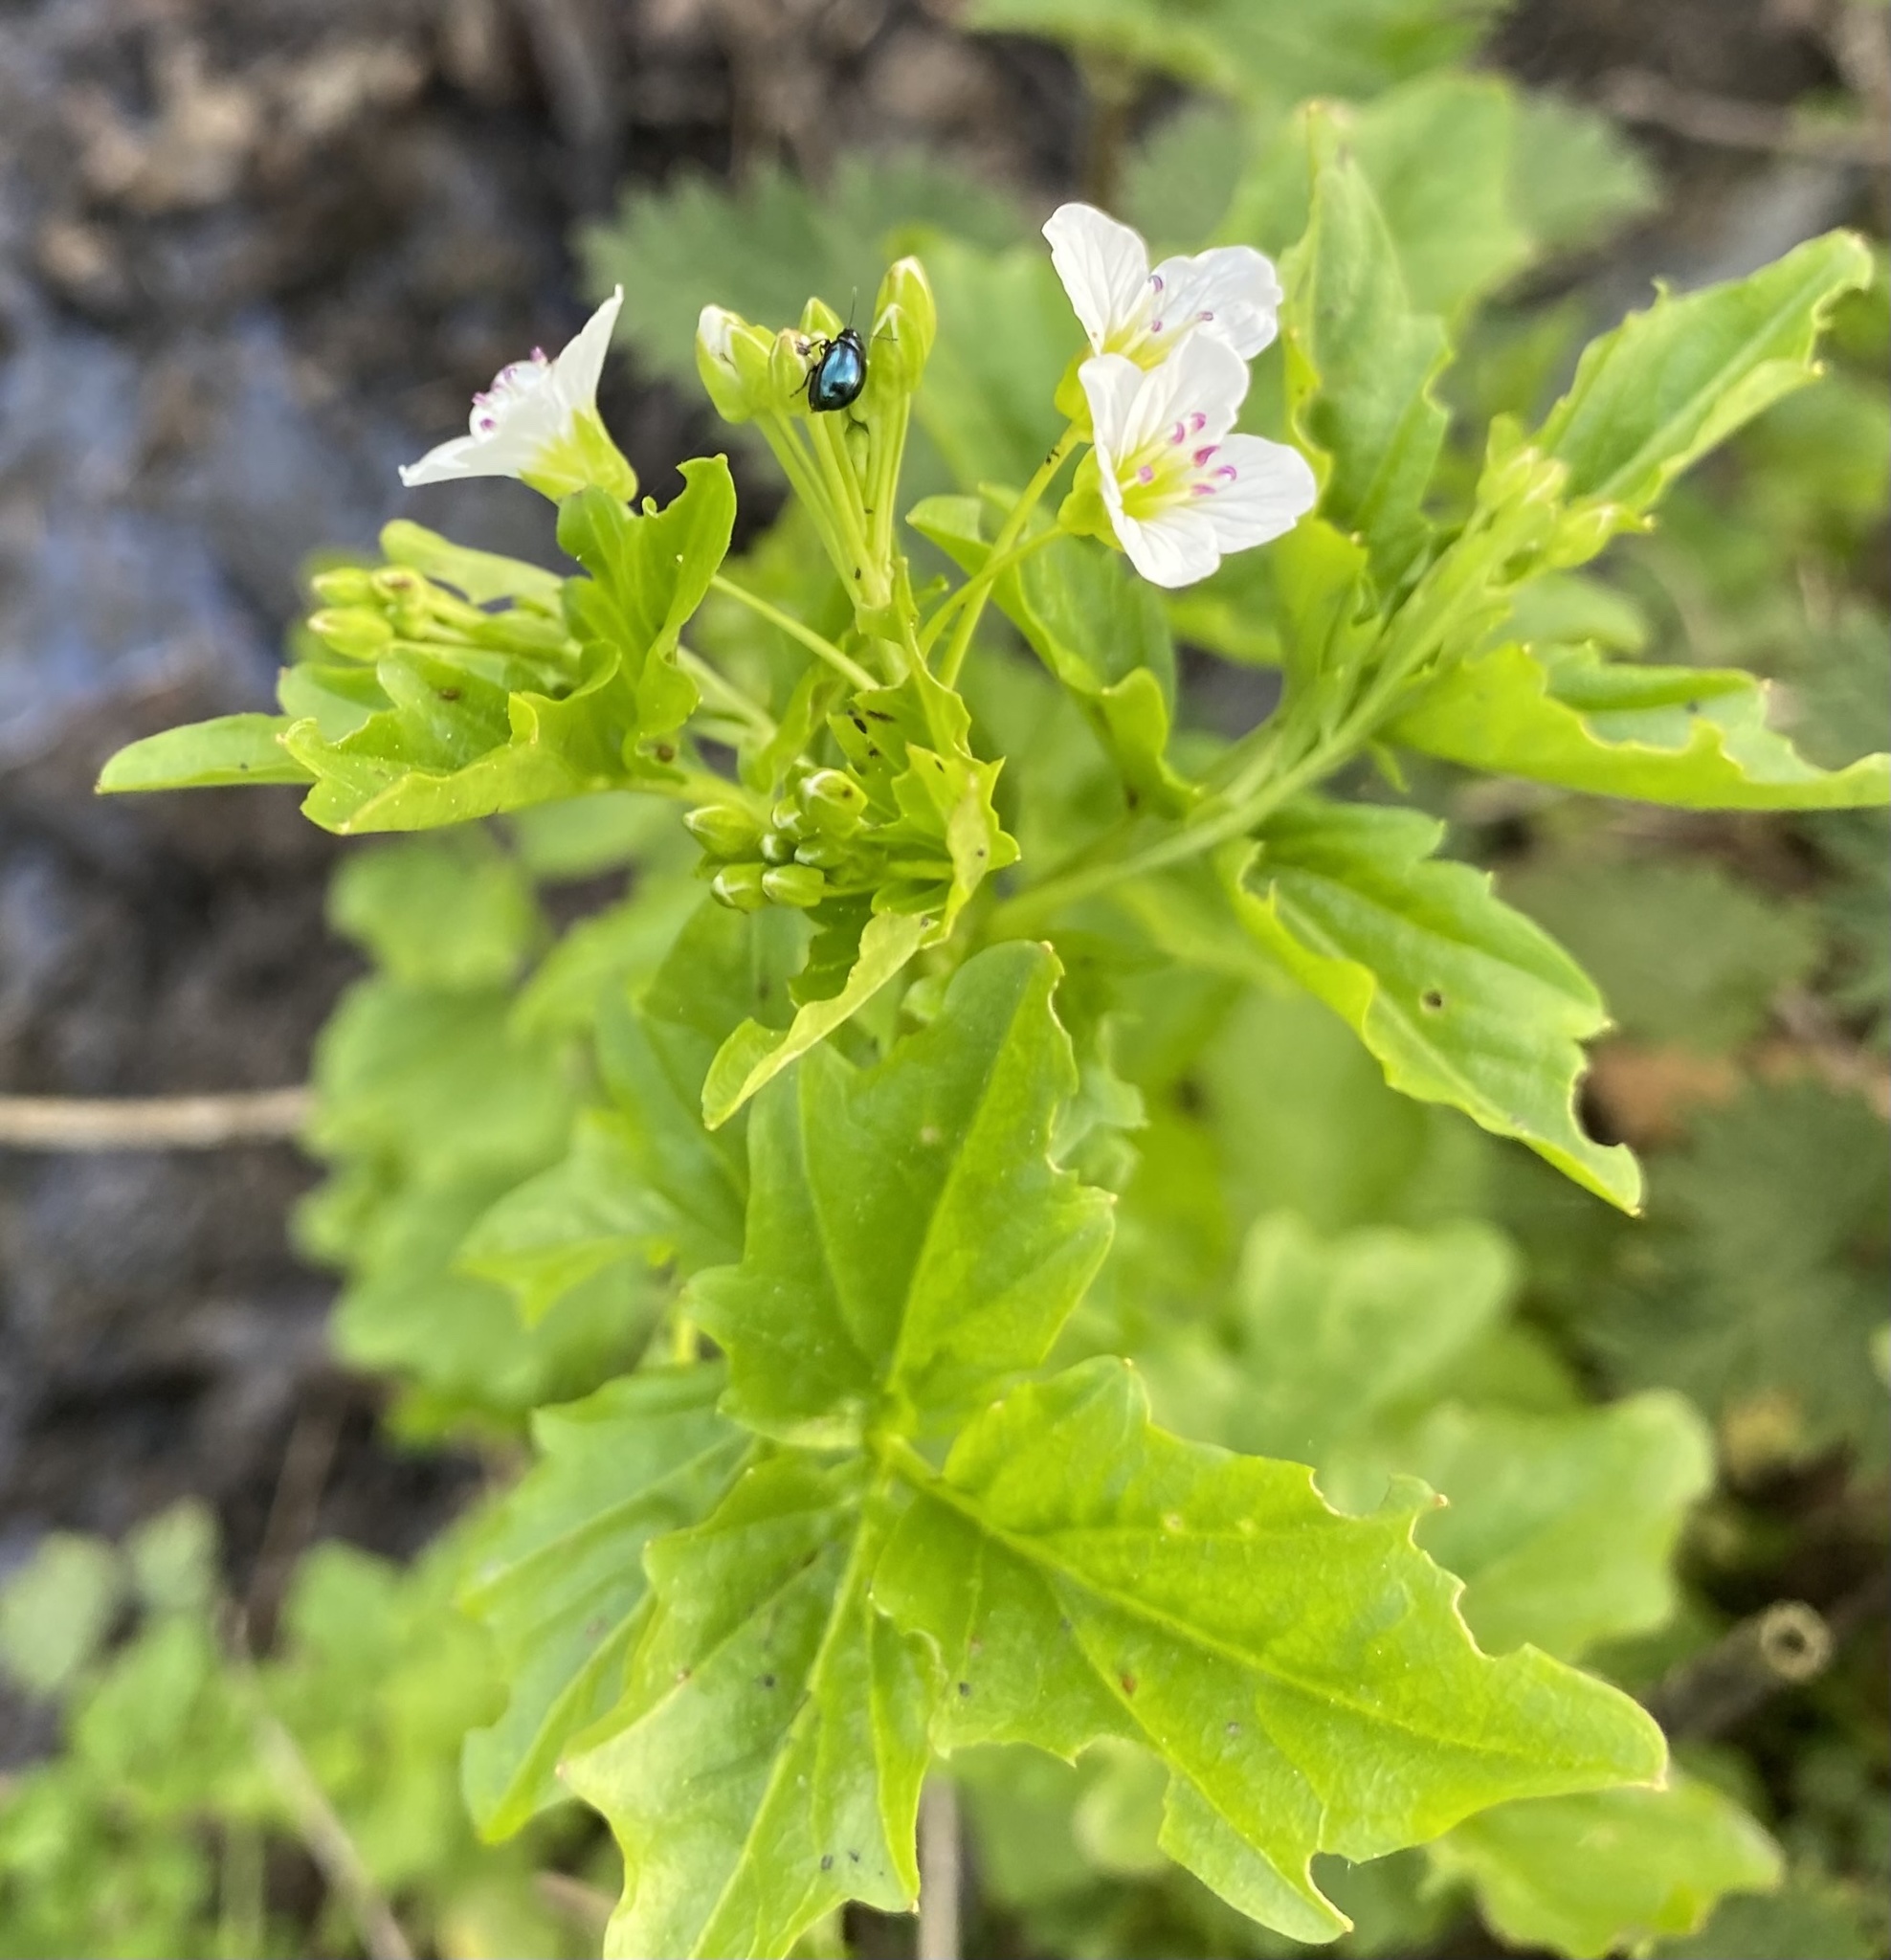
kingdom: Plantae
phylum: Tracheophyta
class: Magnoliopsida
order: Brassicales
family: Brassicaceae
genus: Cardamine
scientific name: Cardamine amara
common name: Large bitter-cress
